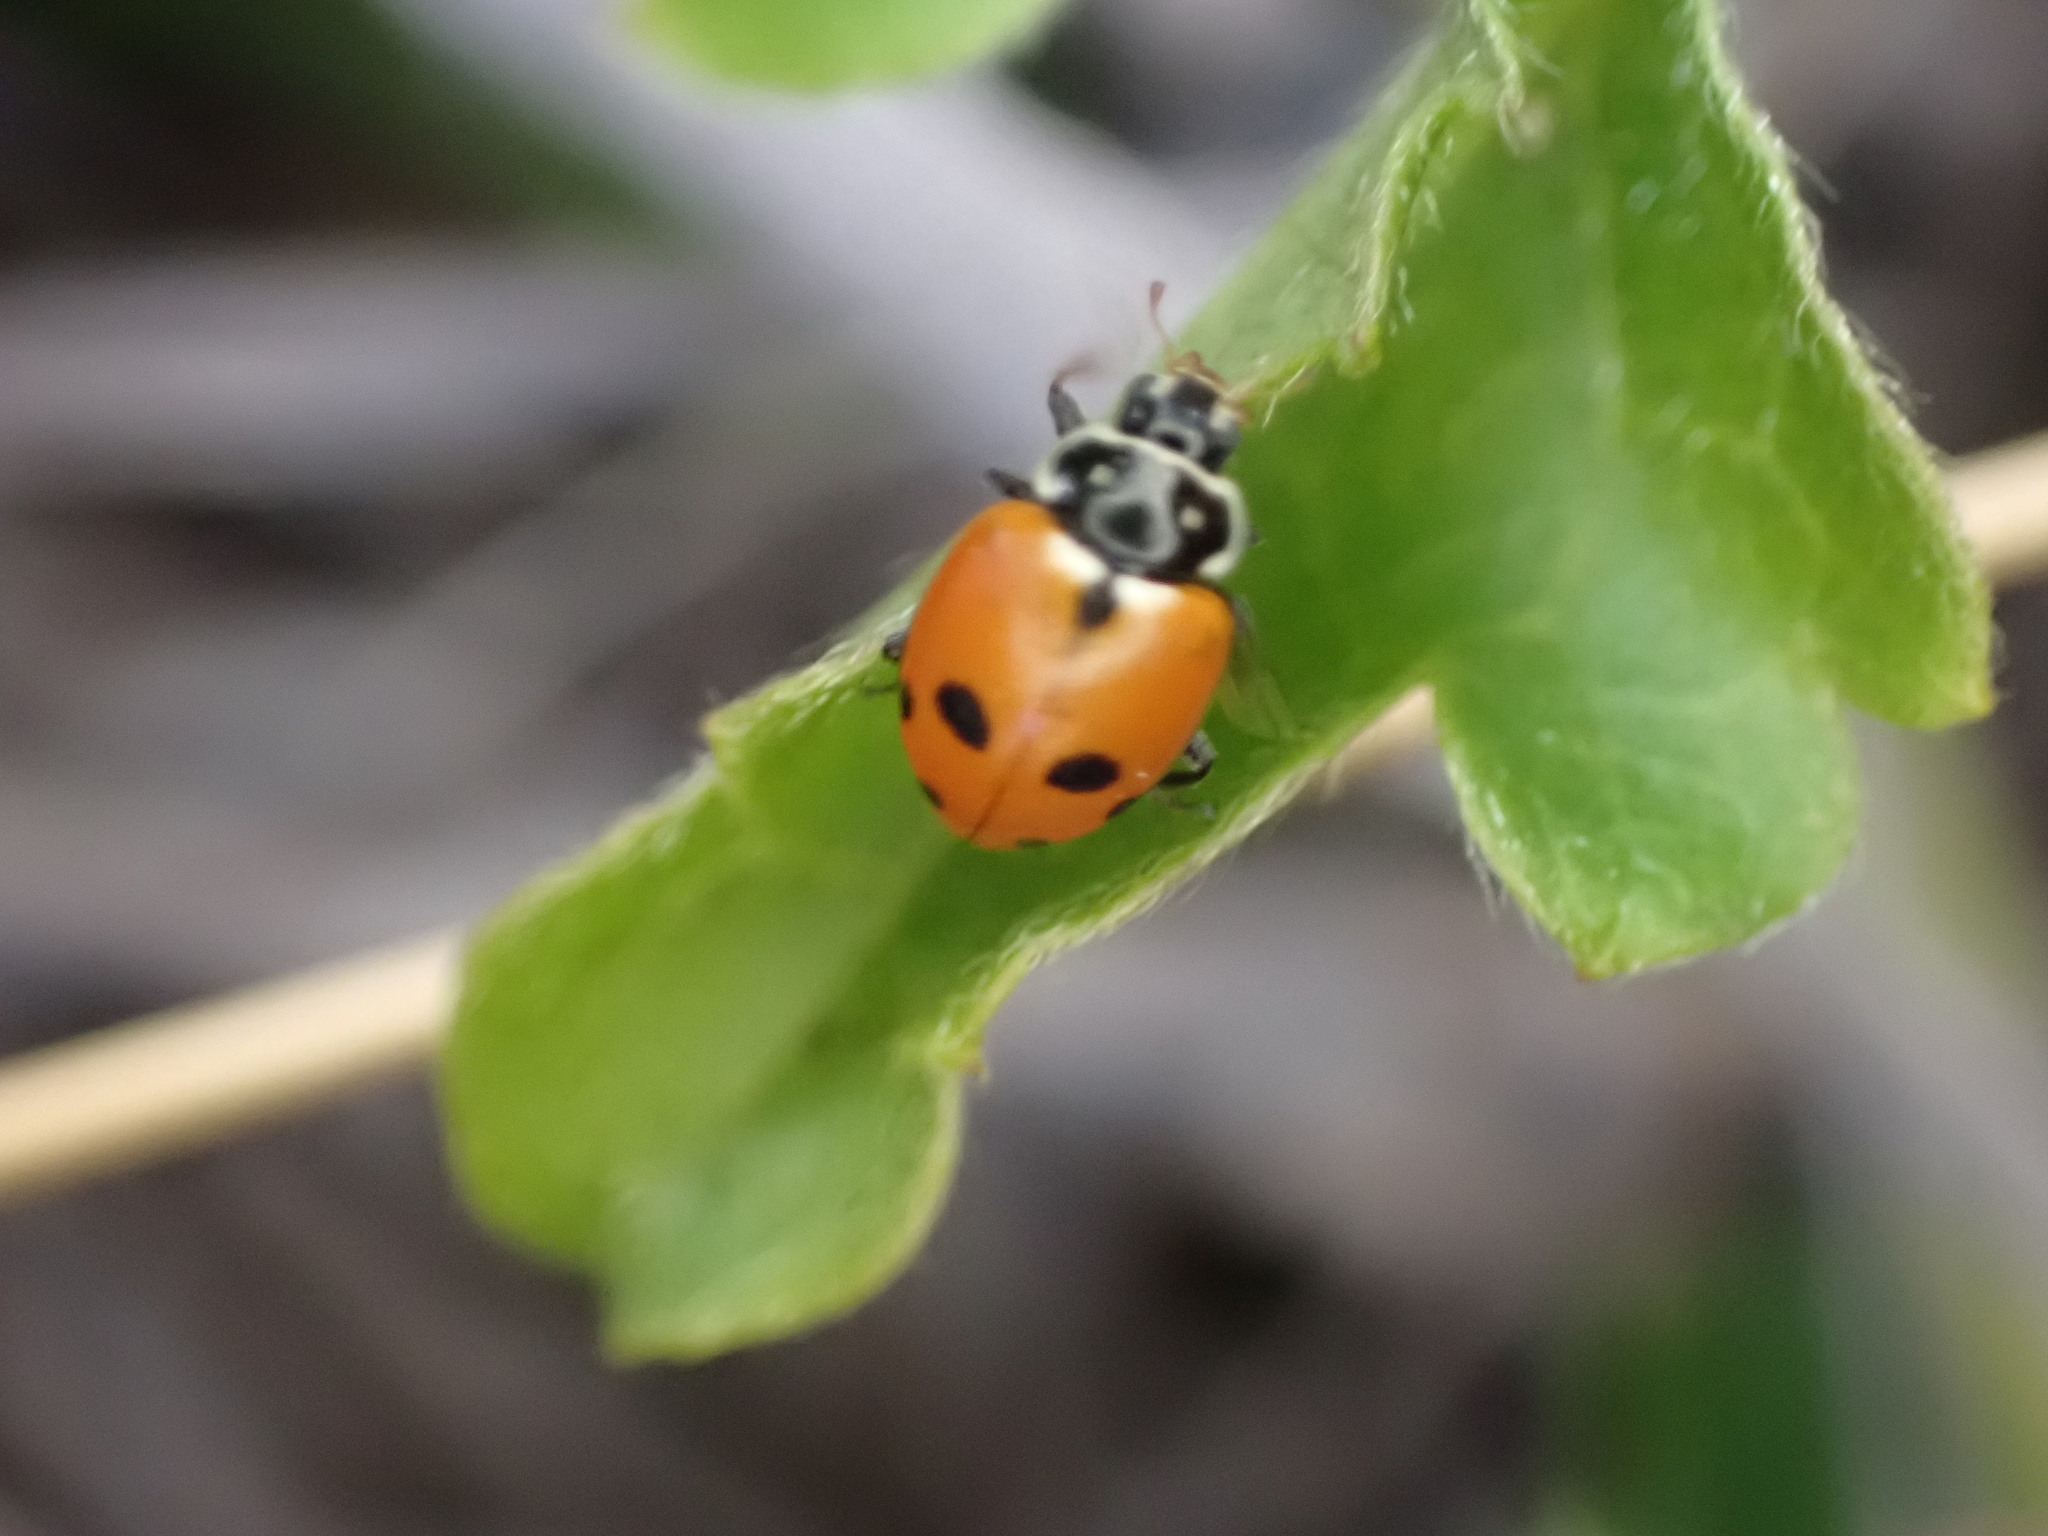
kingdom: Animalia
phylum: Arthropoda
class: Insecta
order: Coleoptera
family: Coccinellidae
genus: Hippodamia
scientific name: Hippodamia variegata
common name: Ladybird beetle
